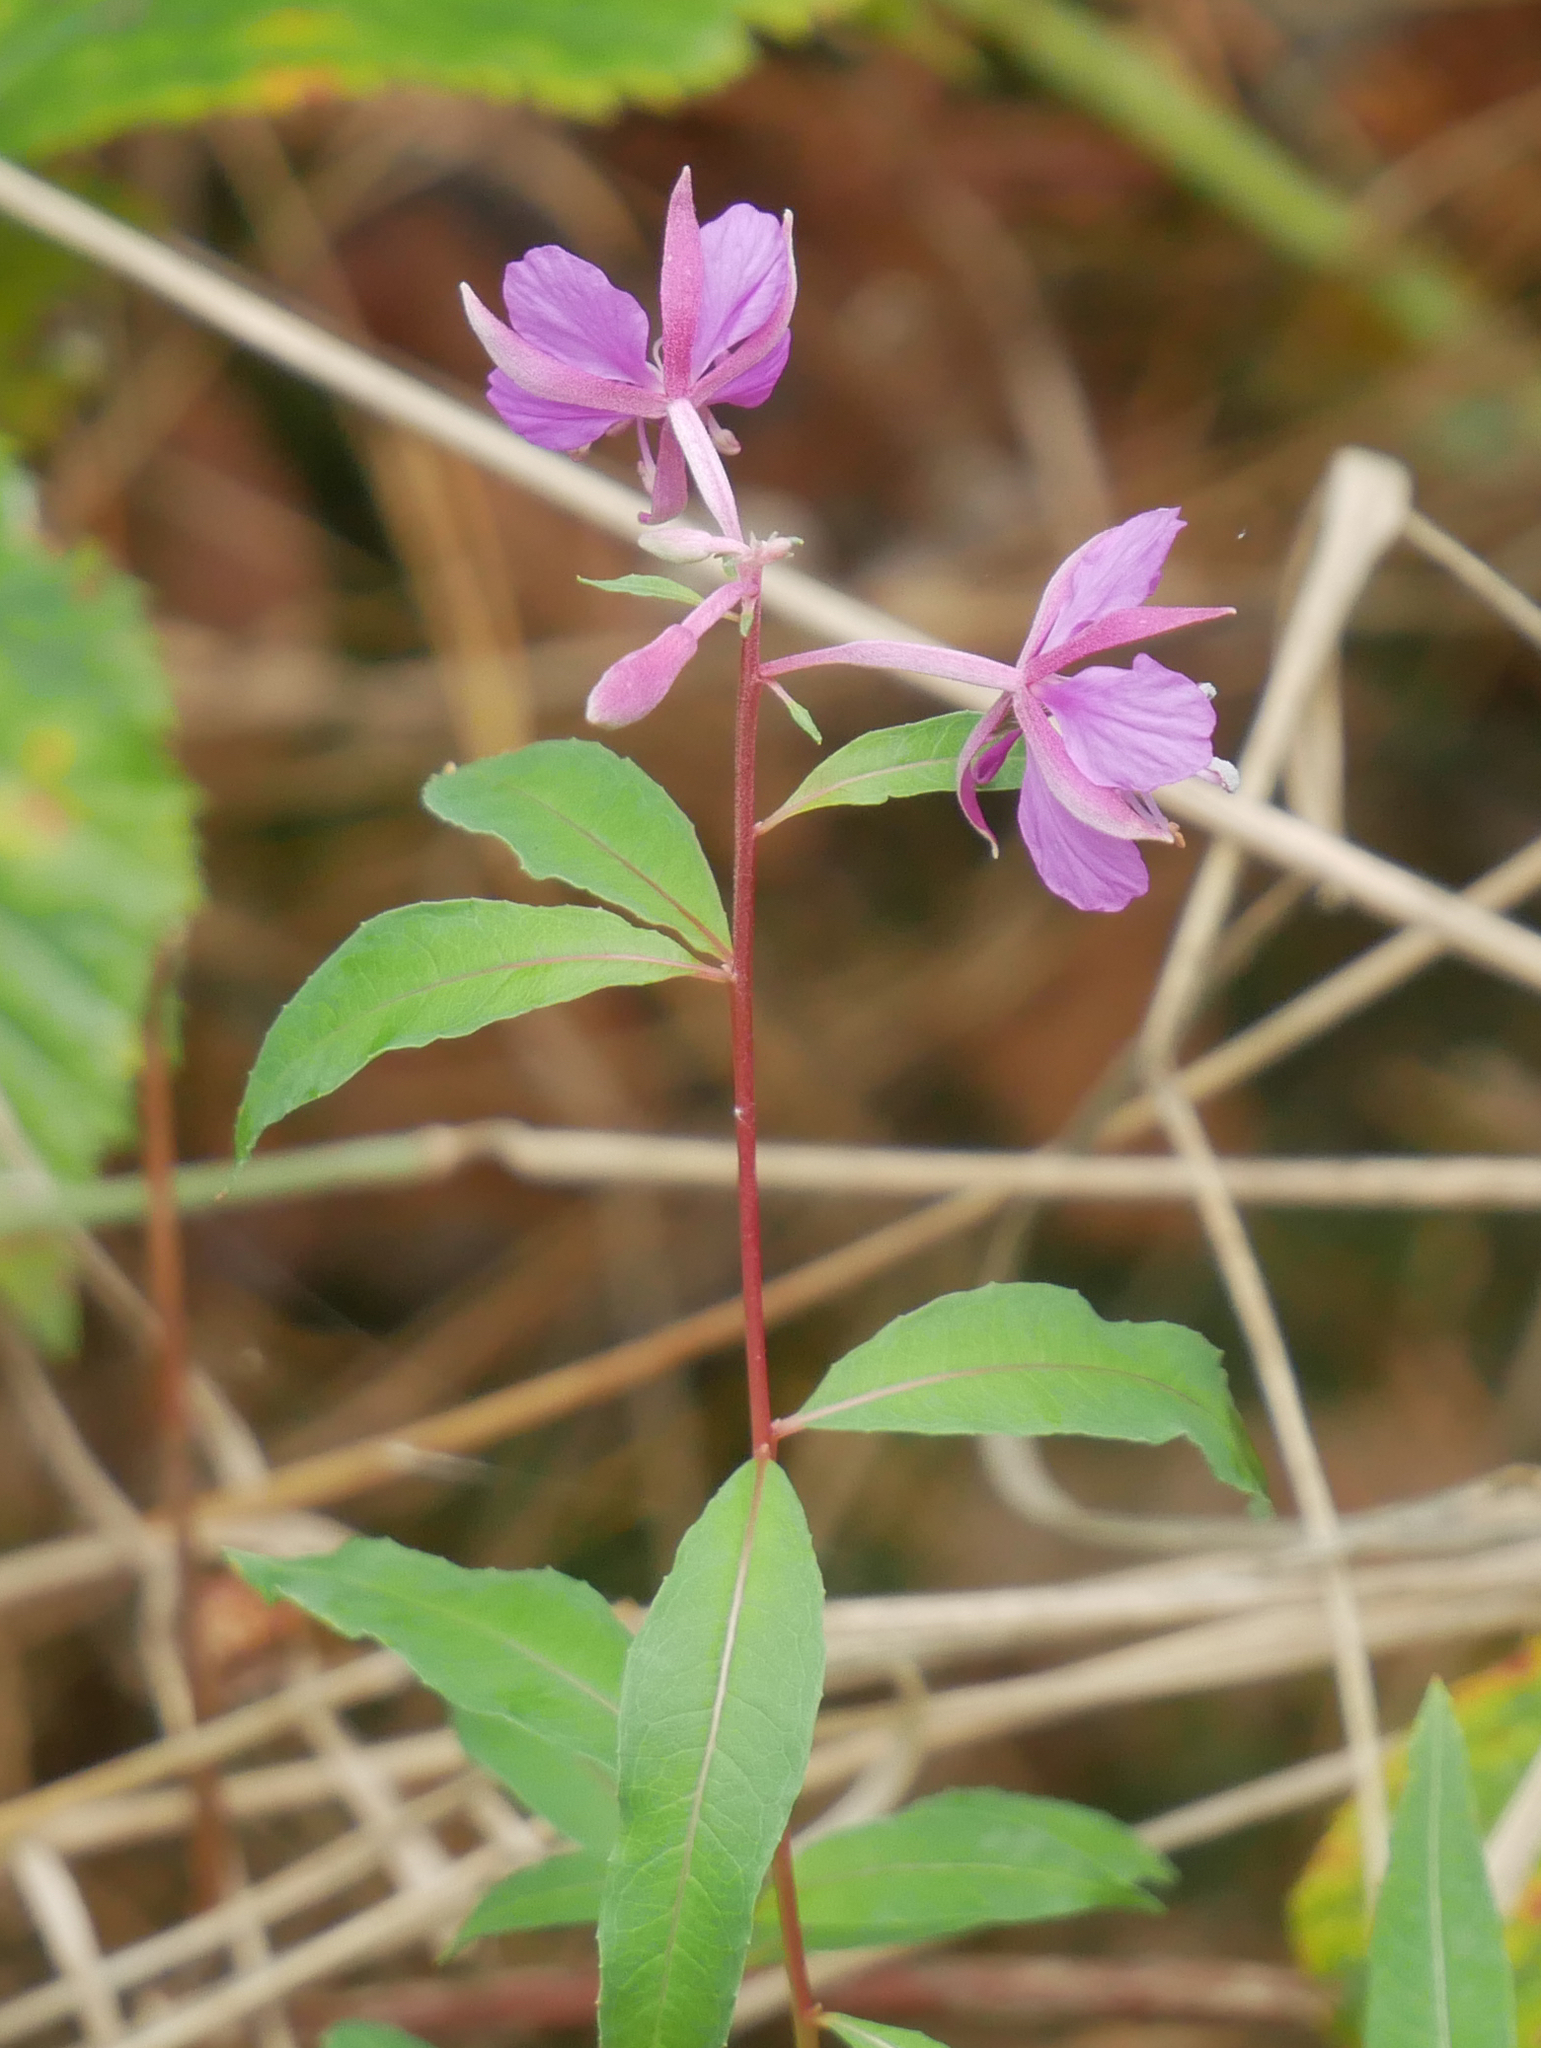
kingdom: Plantae
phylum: Tracheophyta
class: Magnoliopsida
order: Myrtales
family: Onagraceae
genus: Chamaenerion
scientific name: Chamaenerion angustifolium
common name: Fireweed
